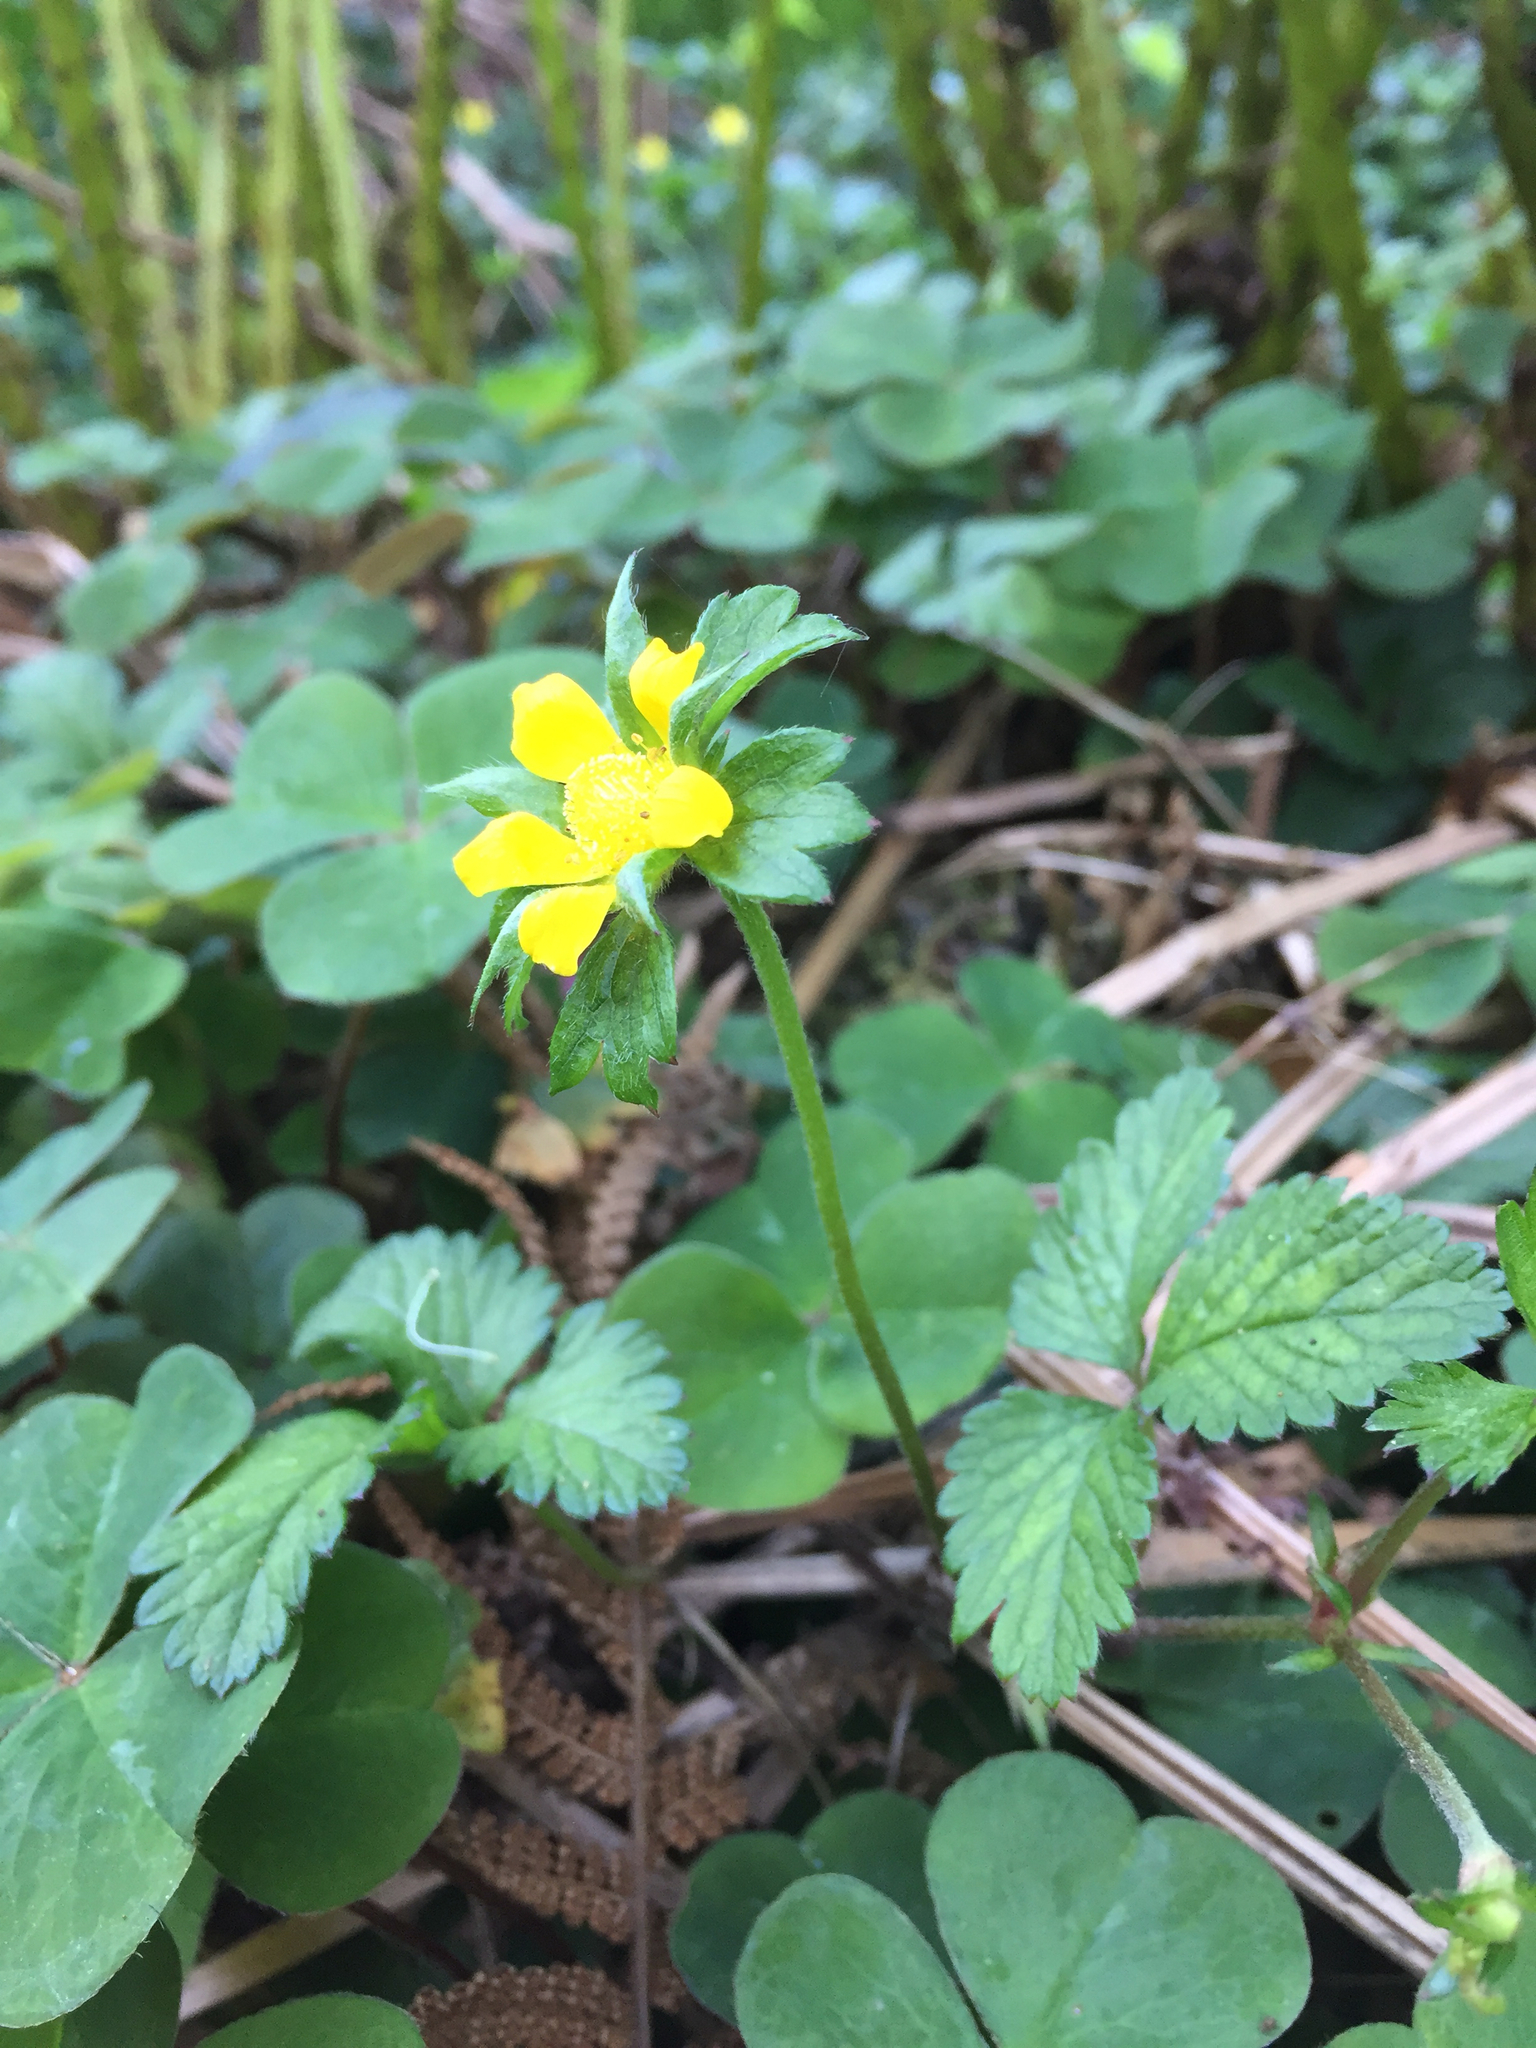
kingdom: Plantae
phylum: Tracheophyta
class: Magnoliopsida
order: Rosales
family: Rosaceae
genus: Potentilla
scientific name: Potentilla indica
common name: Yellow-flowered strawberry
